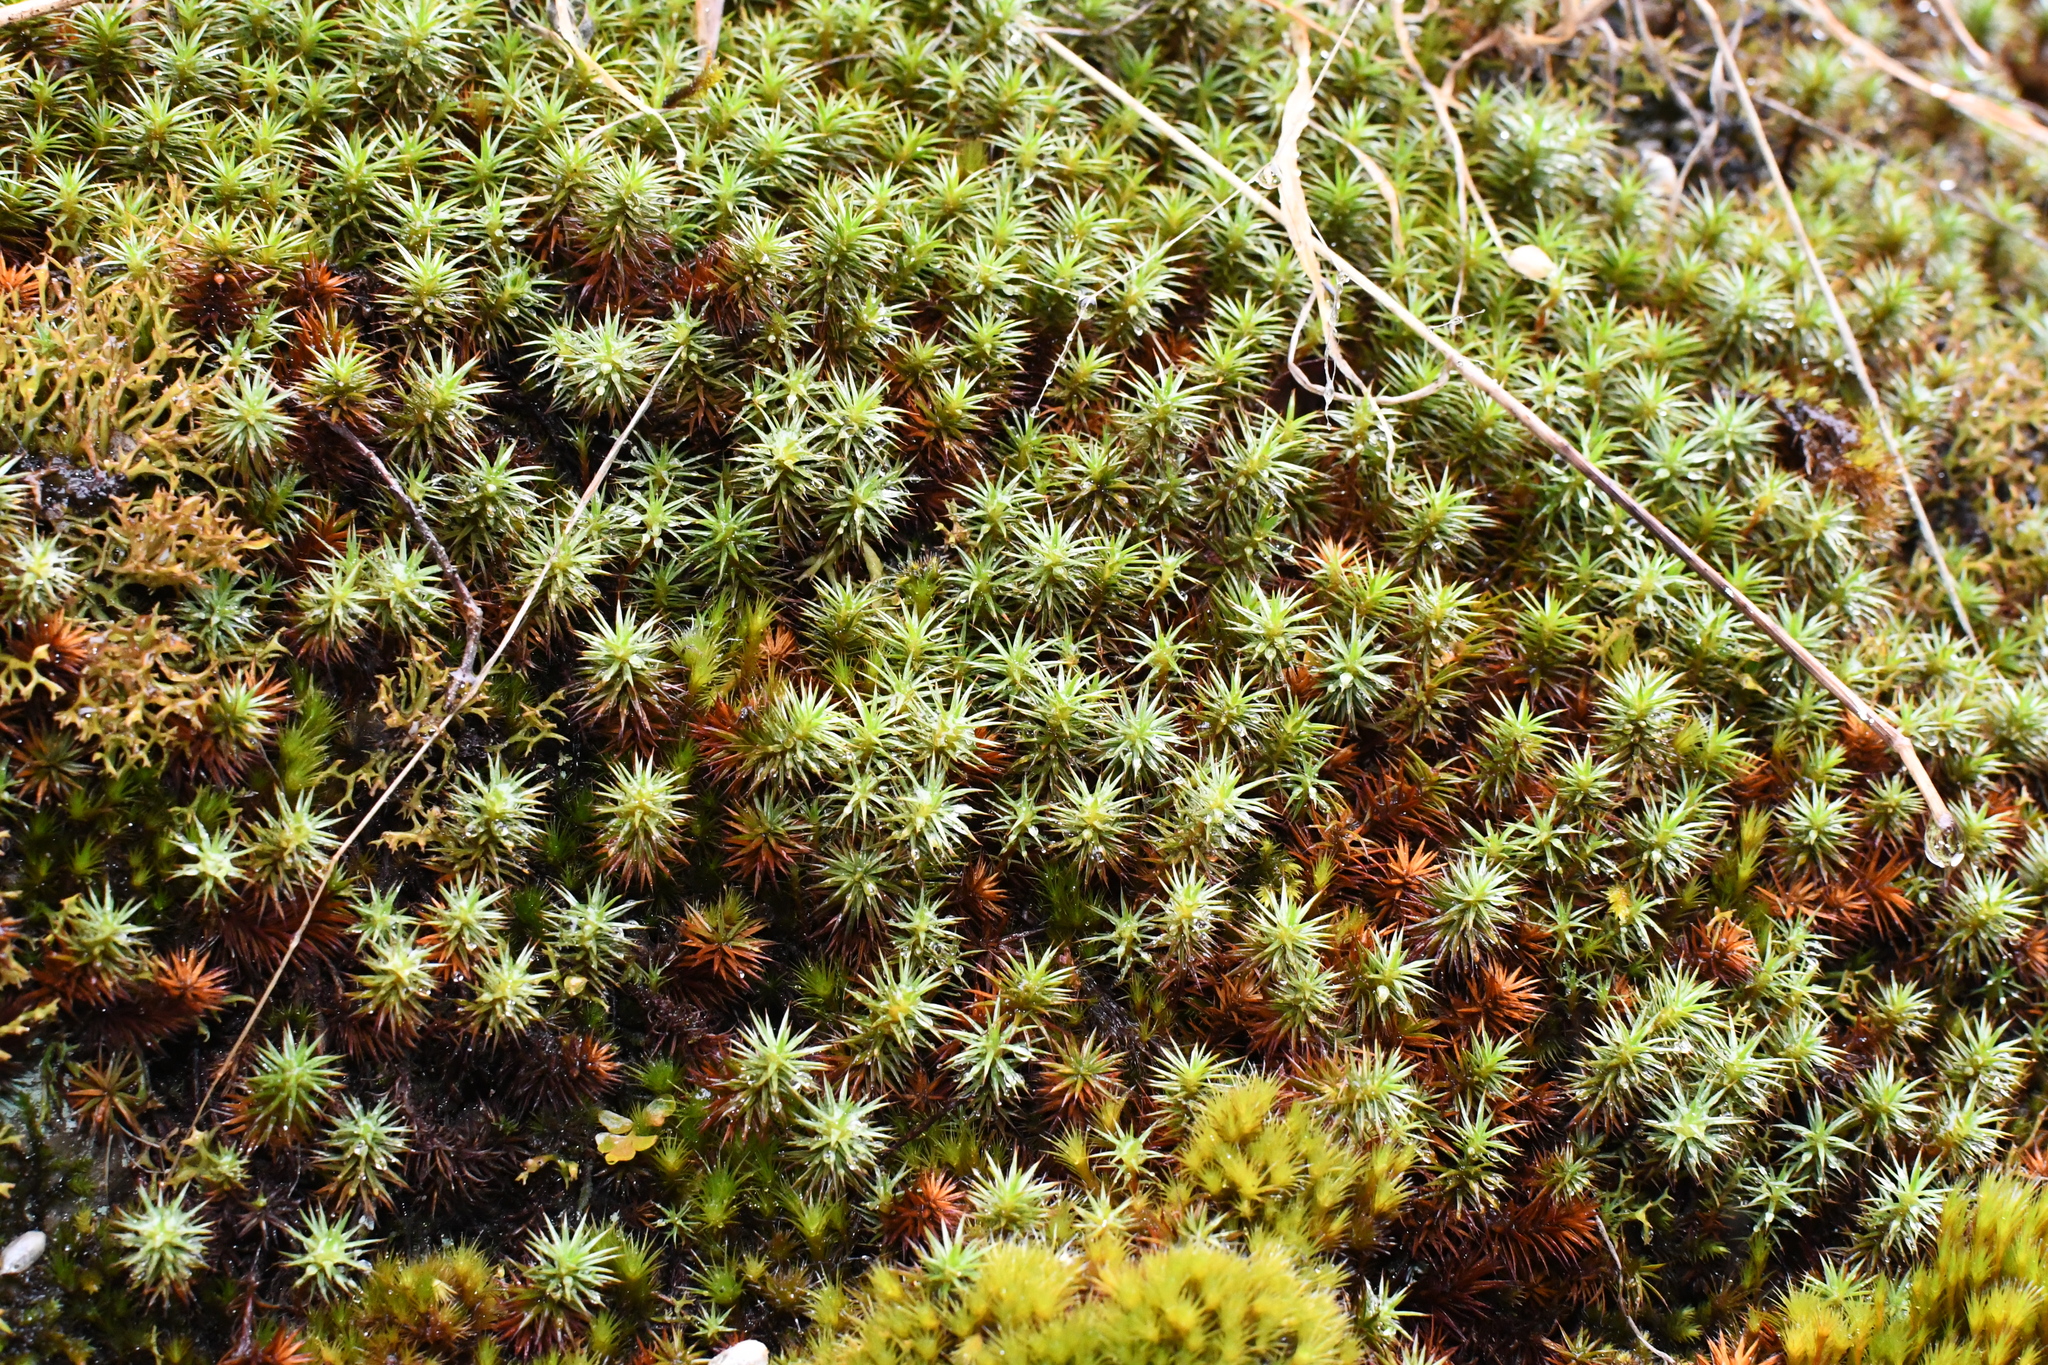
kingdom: Plantae
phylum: Bryophyta
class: Polytrichopsida
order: Polytrichales
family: Polytrichaceae
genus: Polytrichum
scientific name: Polytrichum juniperinum
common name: Juniper haircap moss
